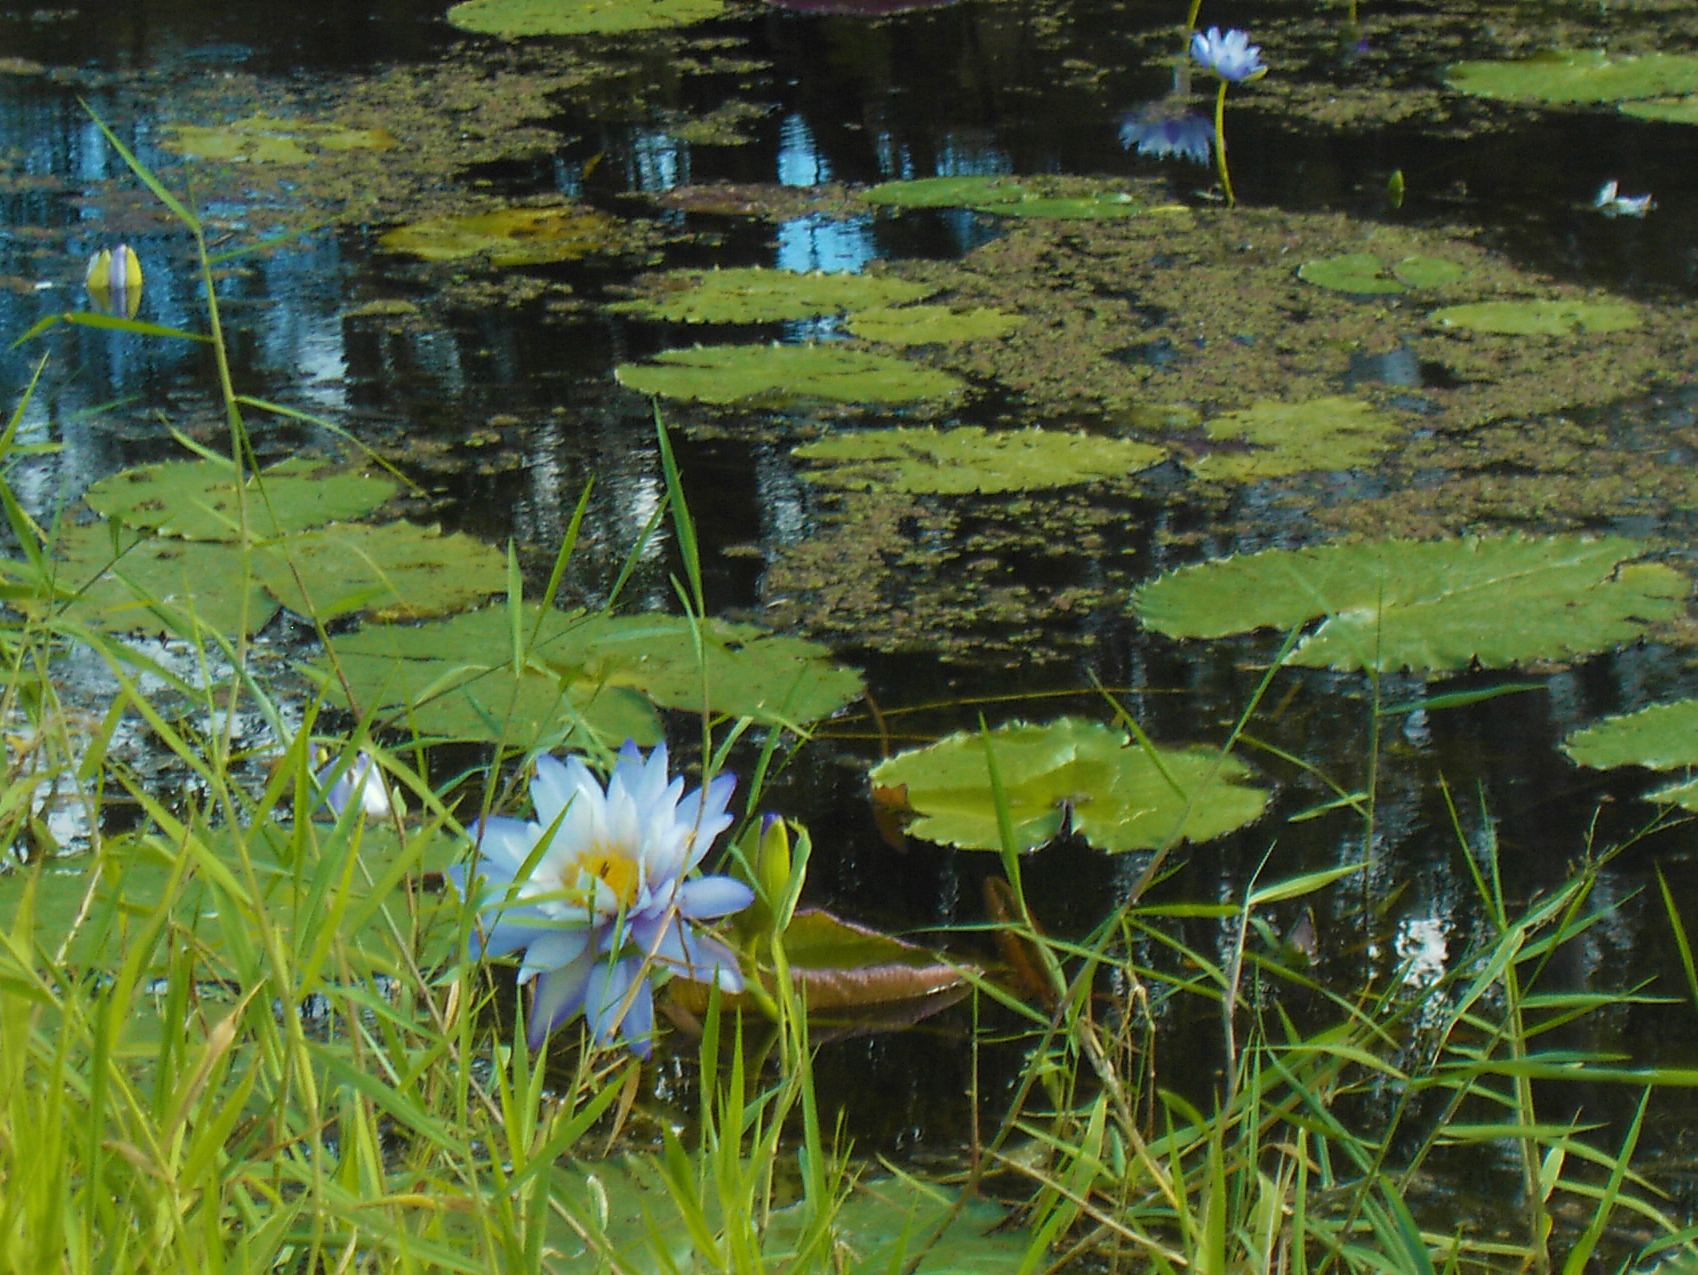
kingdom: Plantae
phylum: Tracheophyta
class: Magnoliopsida
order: Nymphaeales
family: Nymphaeaceae
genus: Nymphaea
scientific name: Nymphaea gigantea
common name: Giant water-lily
